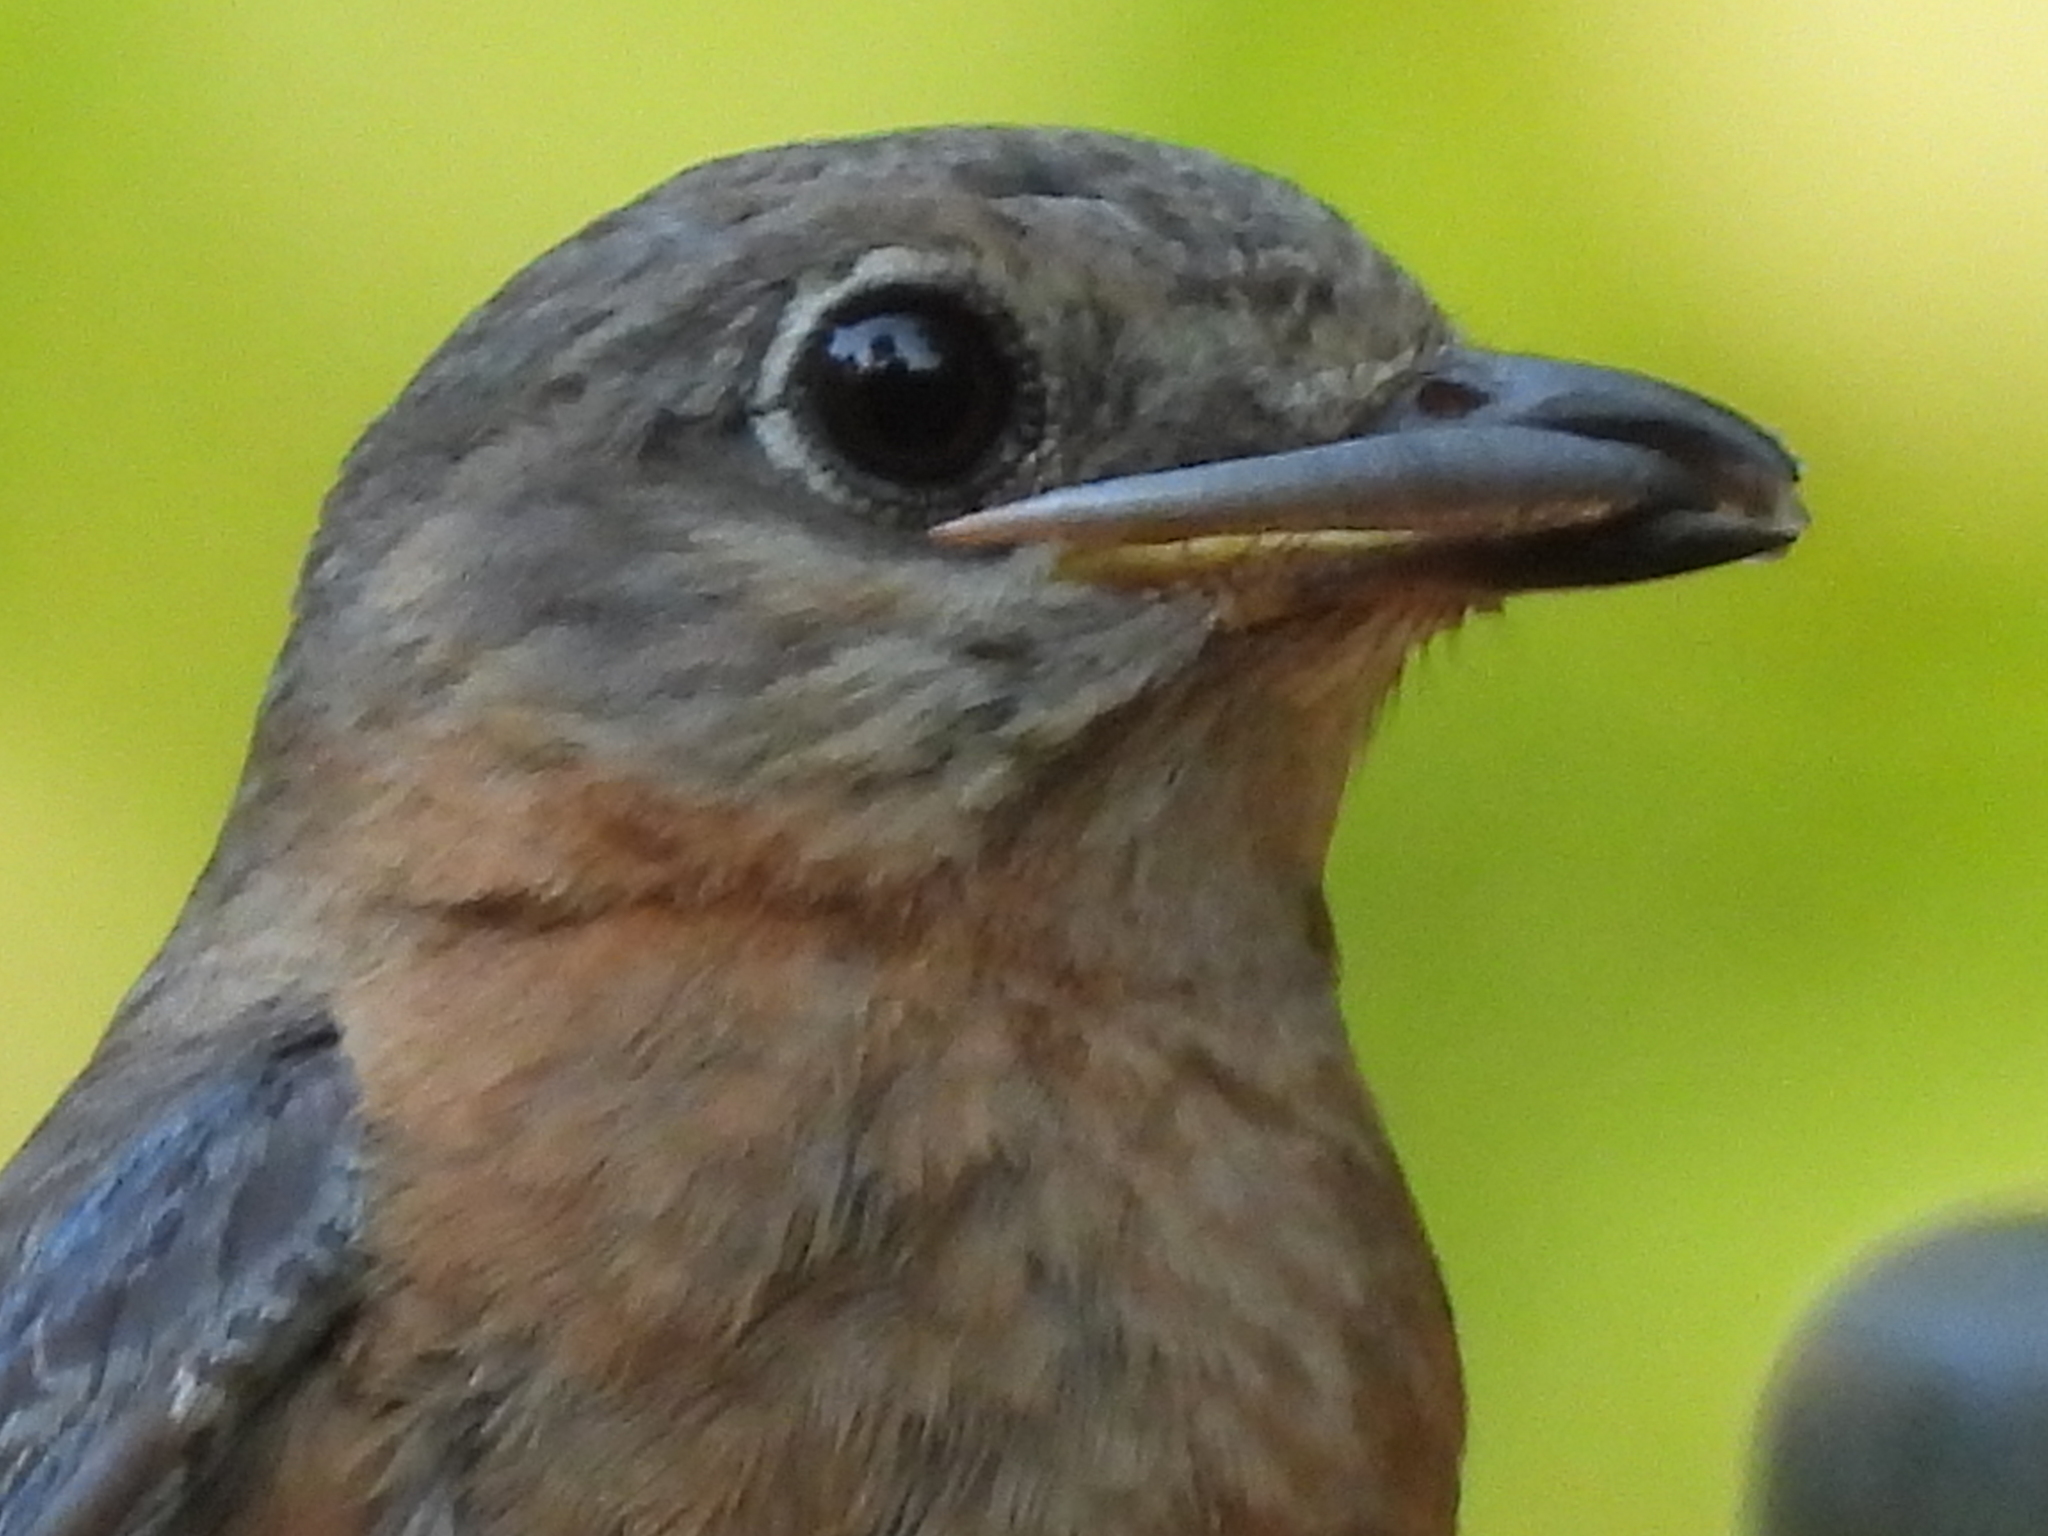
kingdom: Animalia
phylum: Chordata
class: Squamata
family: Scincidae
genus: Scincella
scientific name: Scincella lateralis
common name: Ground skink
